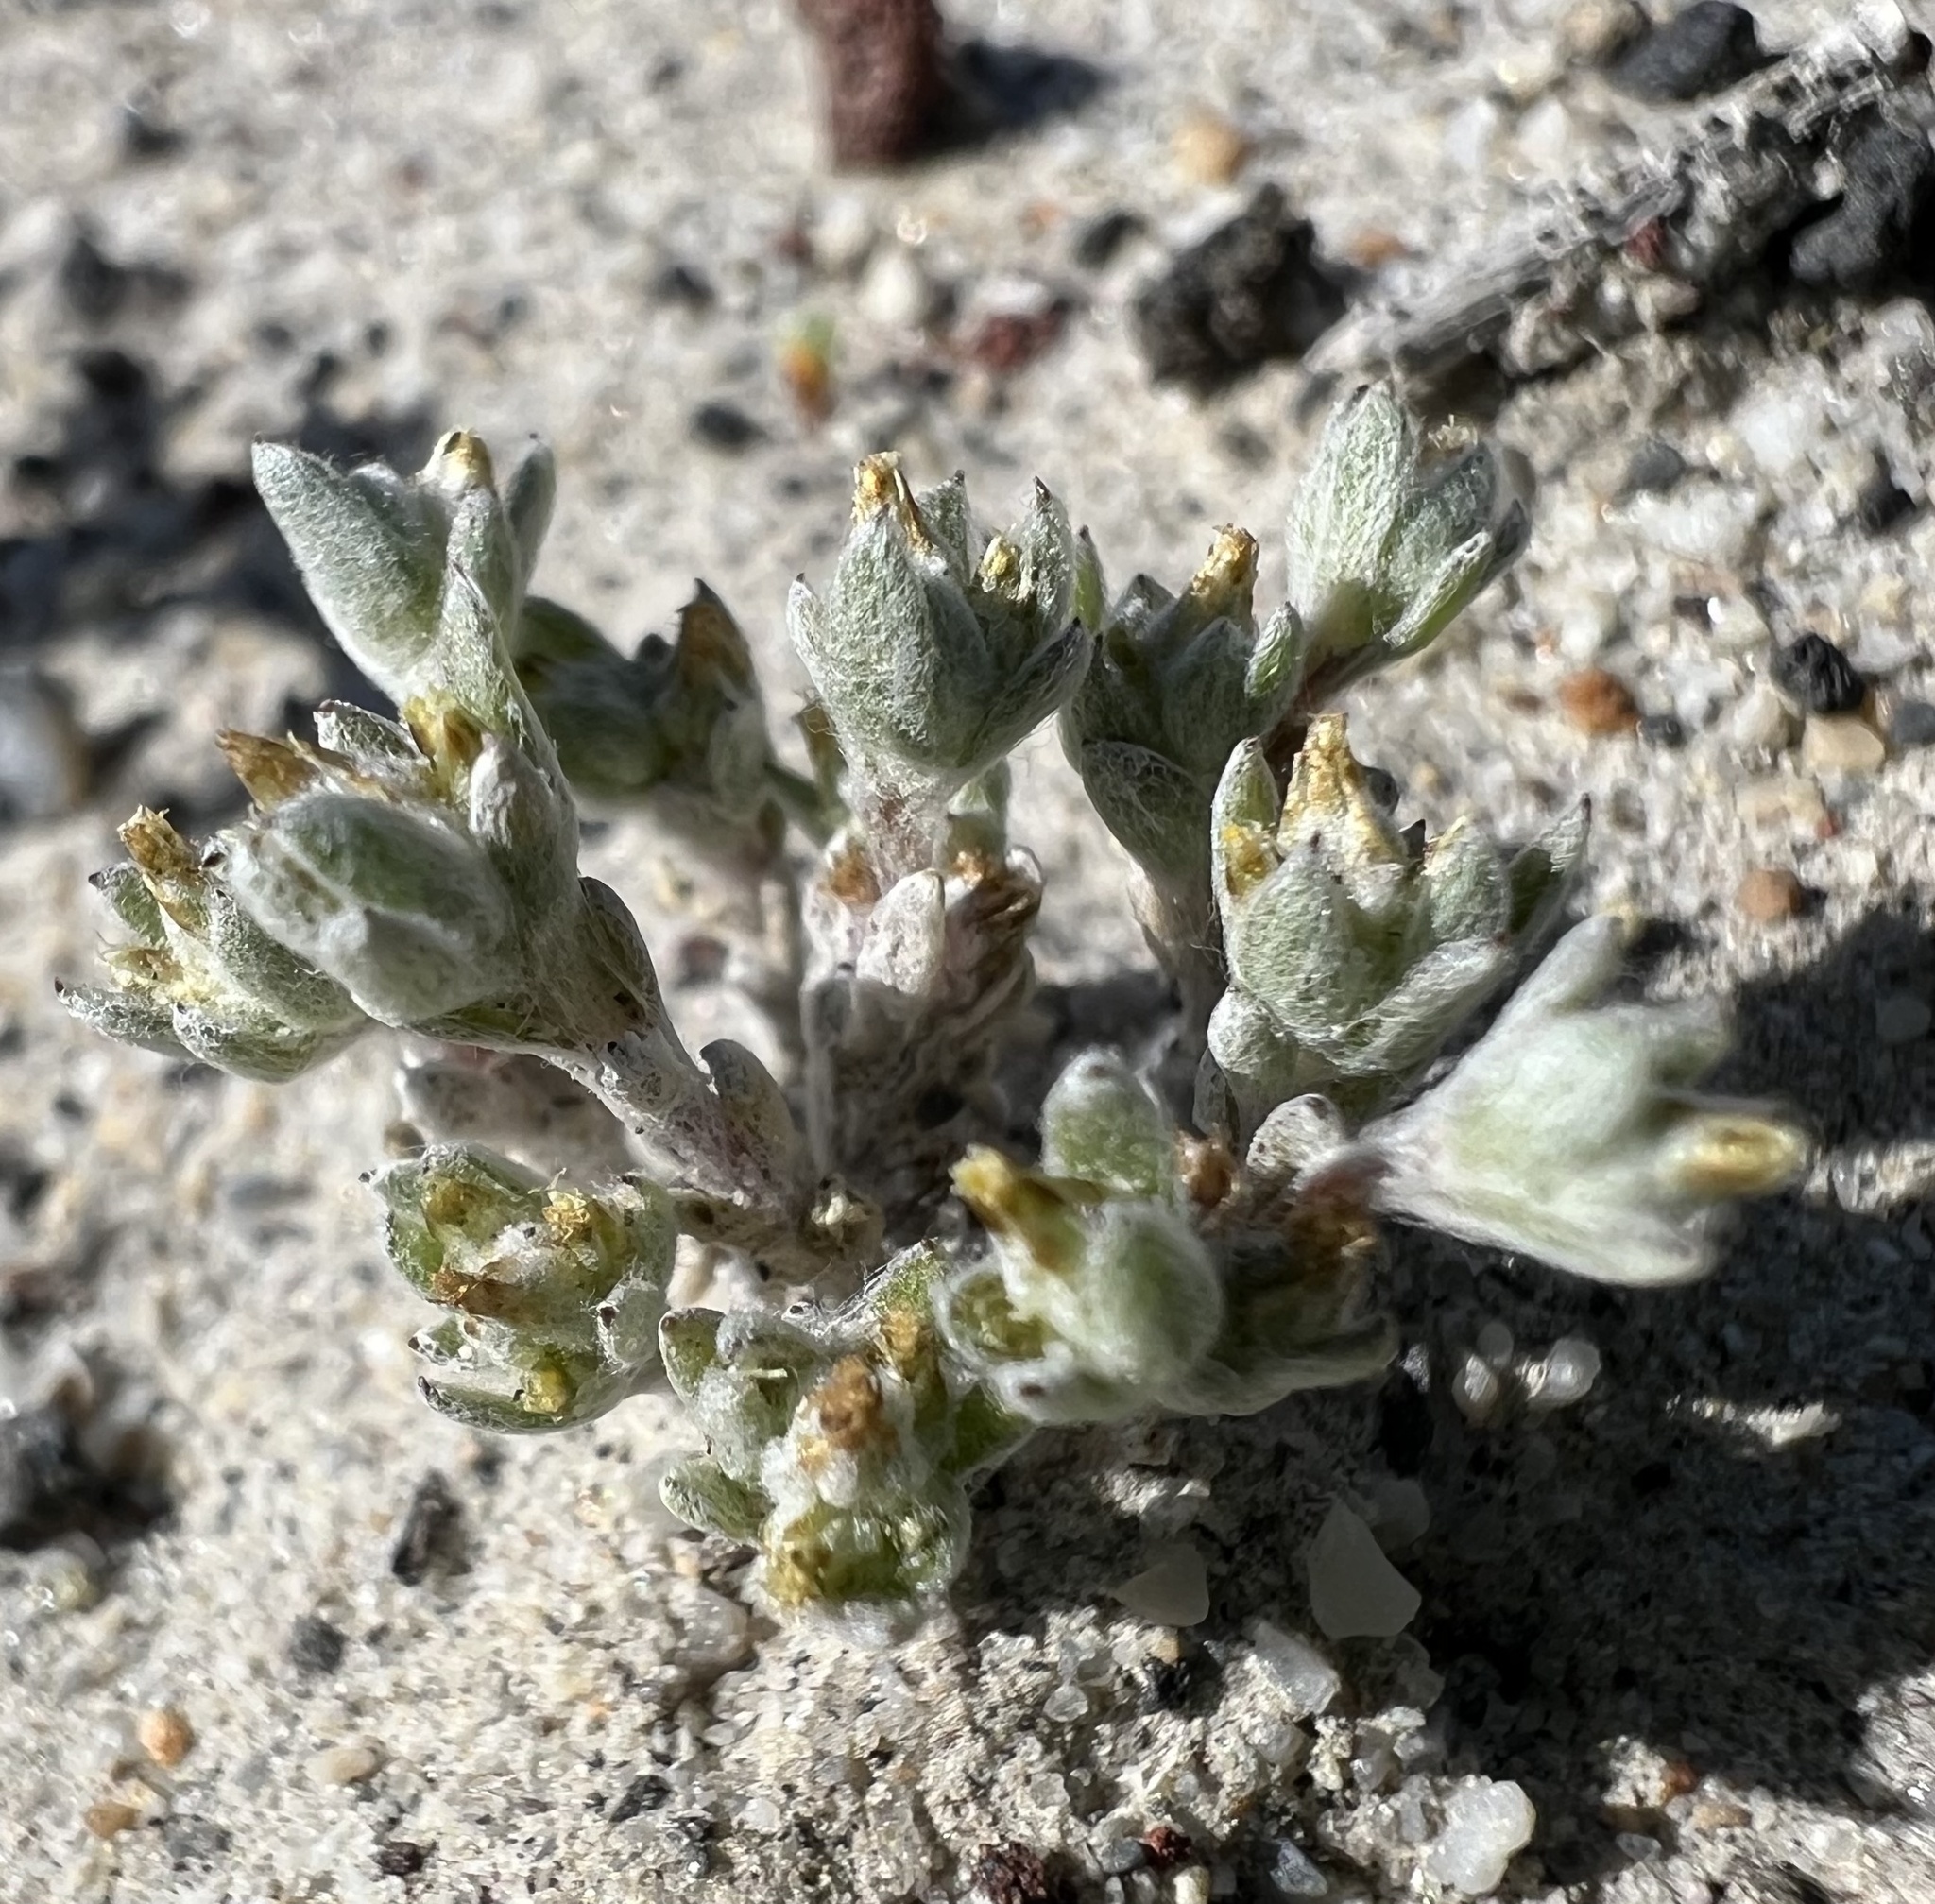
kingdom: Plantae
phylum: Tracheophyta
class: Magnoliopsida
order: Asterales
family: Asteraceae
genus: Logfia
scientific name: Logfia depressa
